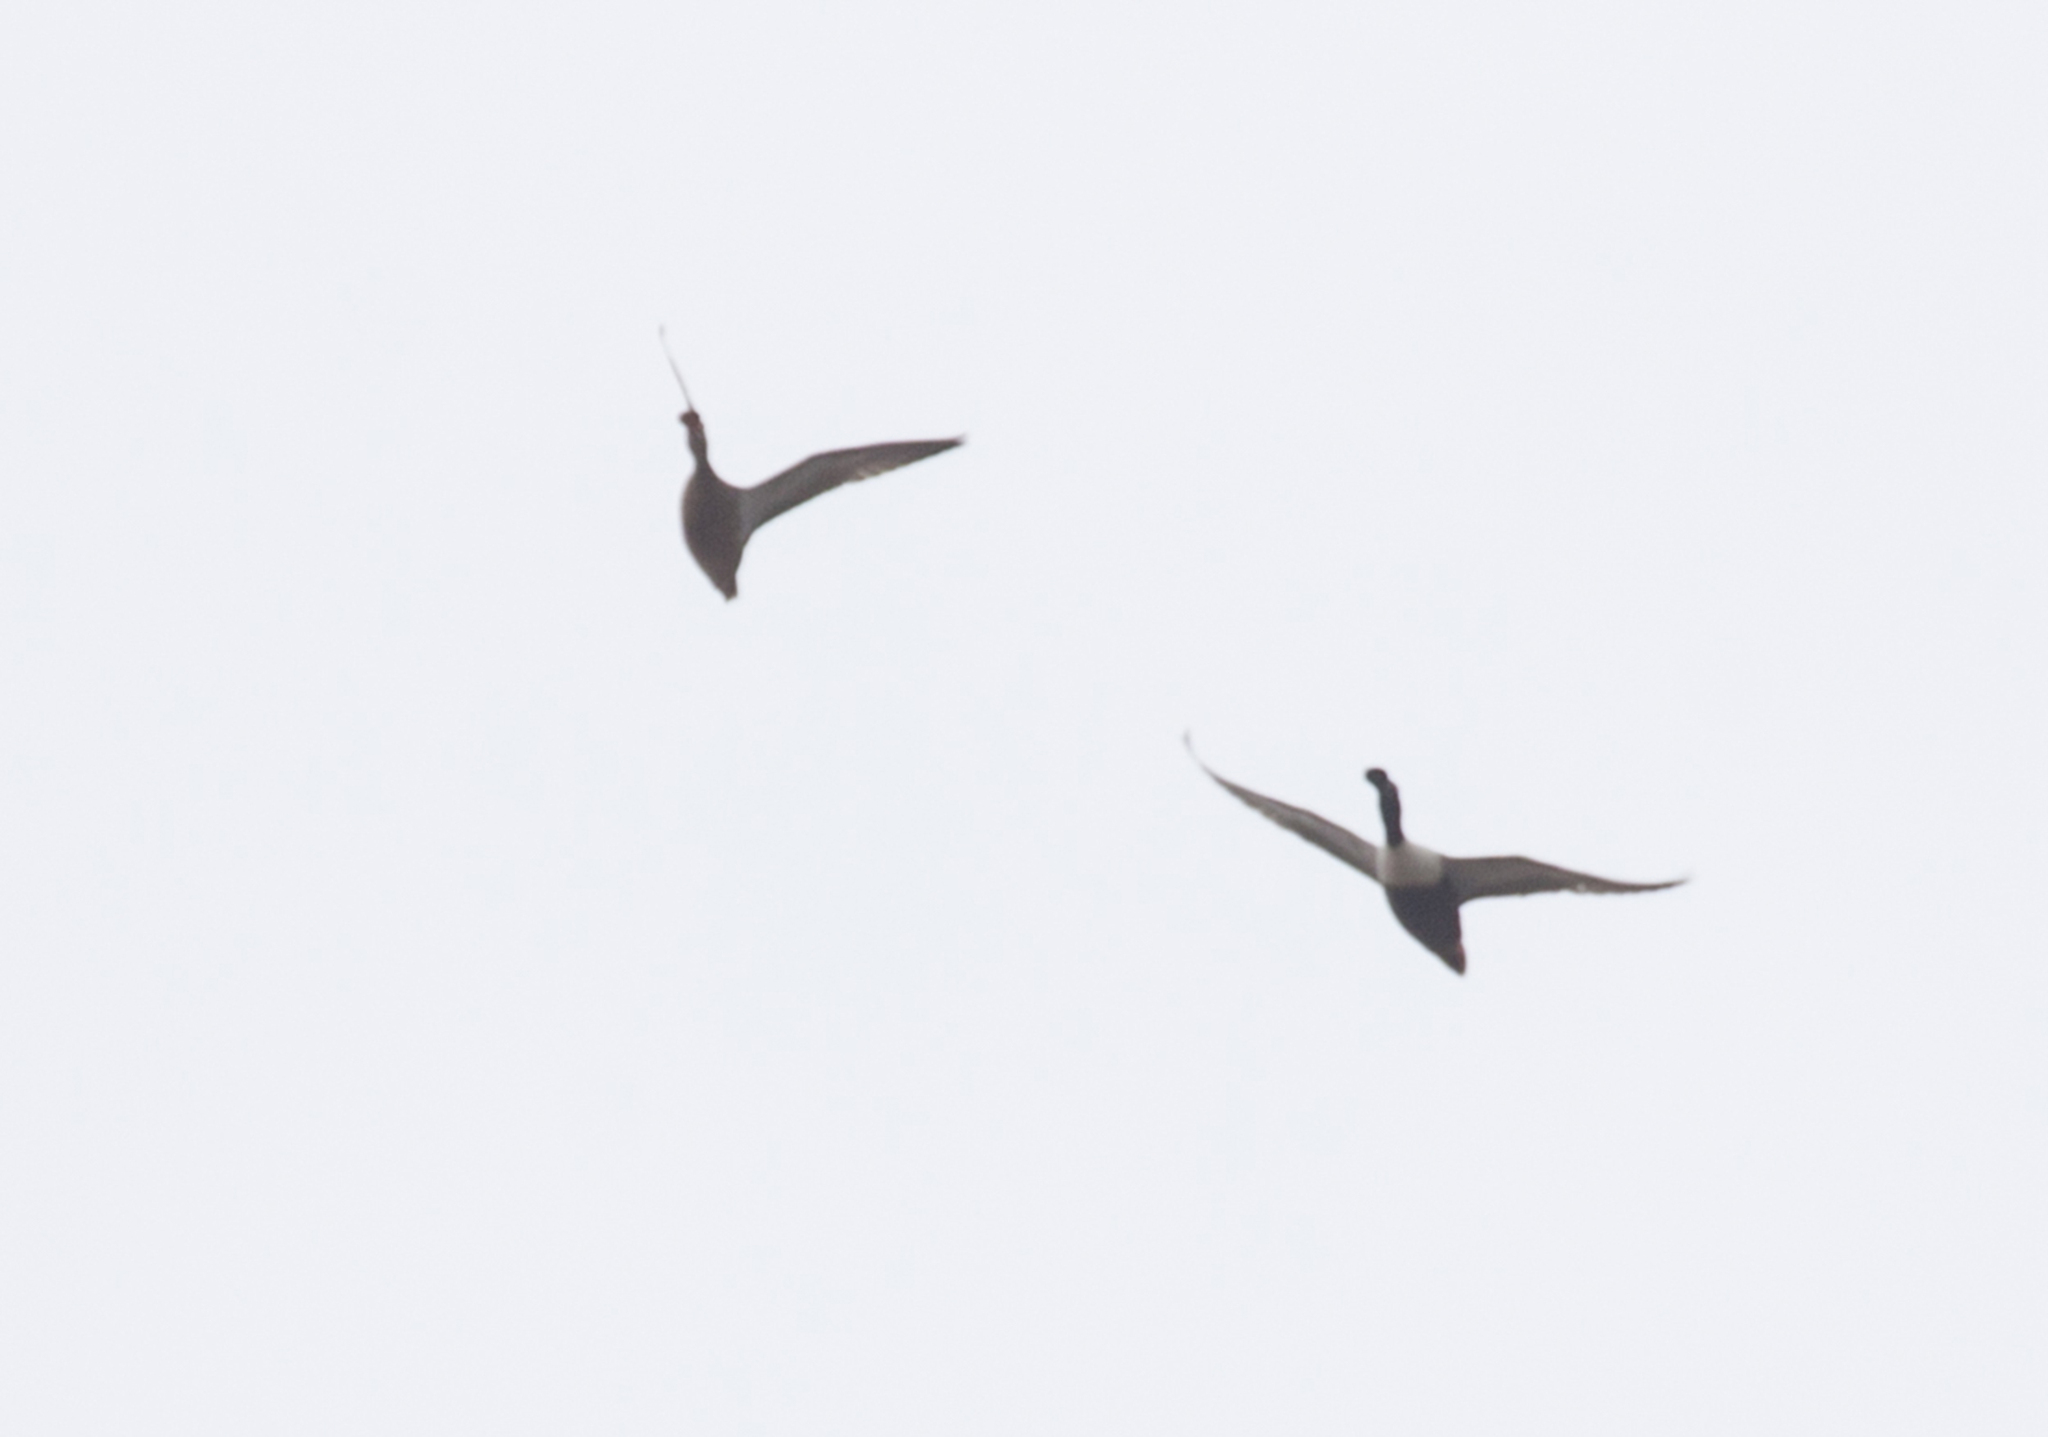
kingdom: Animalia
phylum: Chordata
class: Aves
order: Anseriformes
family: Anatidae
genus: Spatula
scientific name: Spatula clypeata
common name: Northern shoveler
